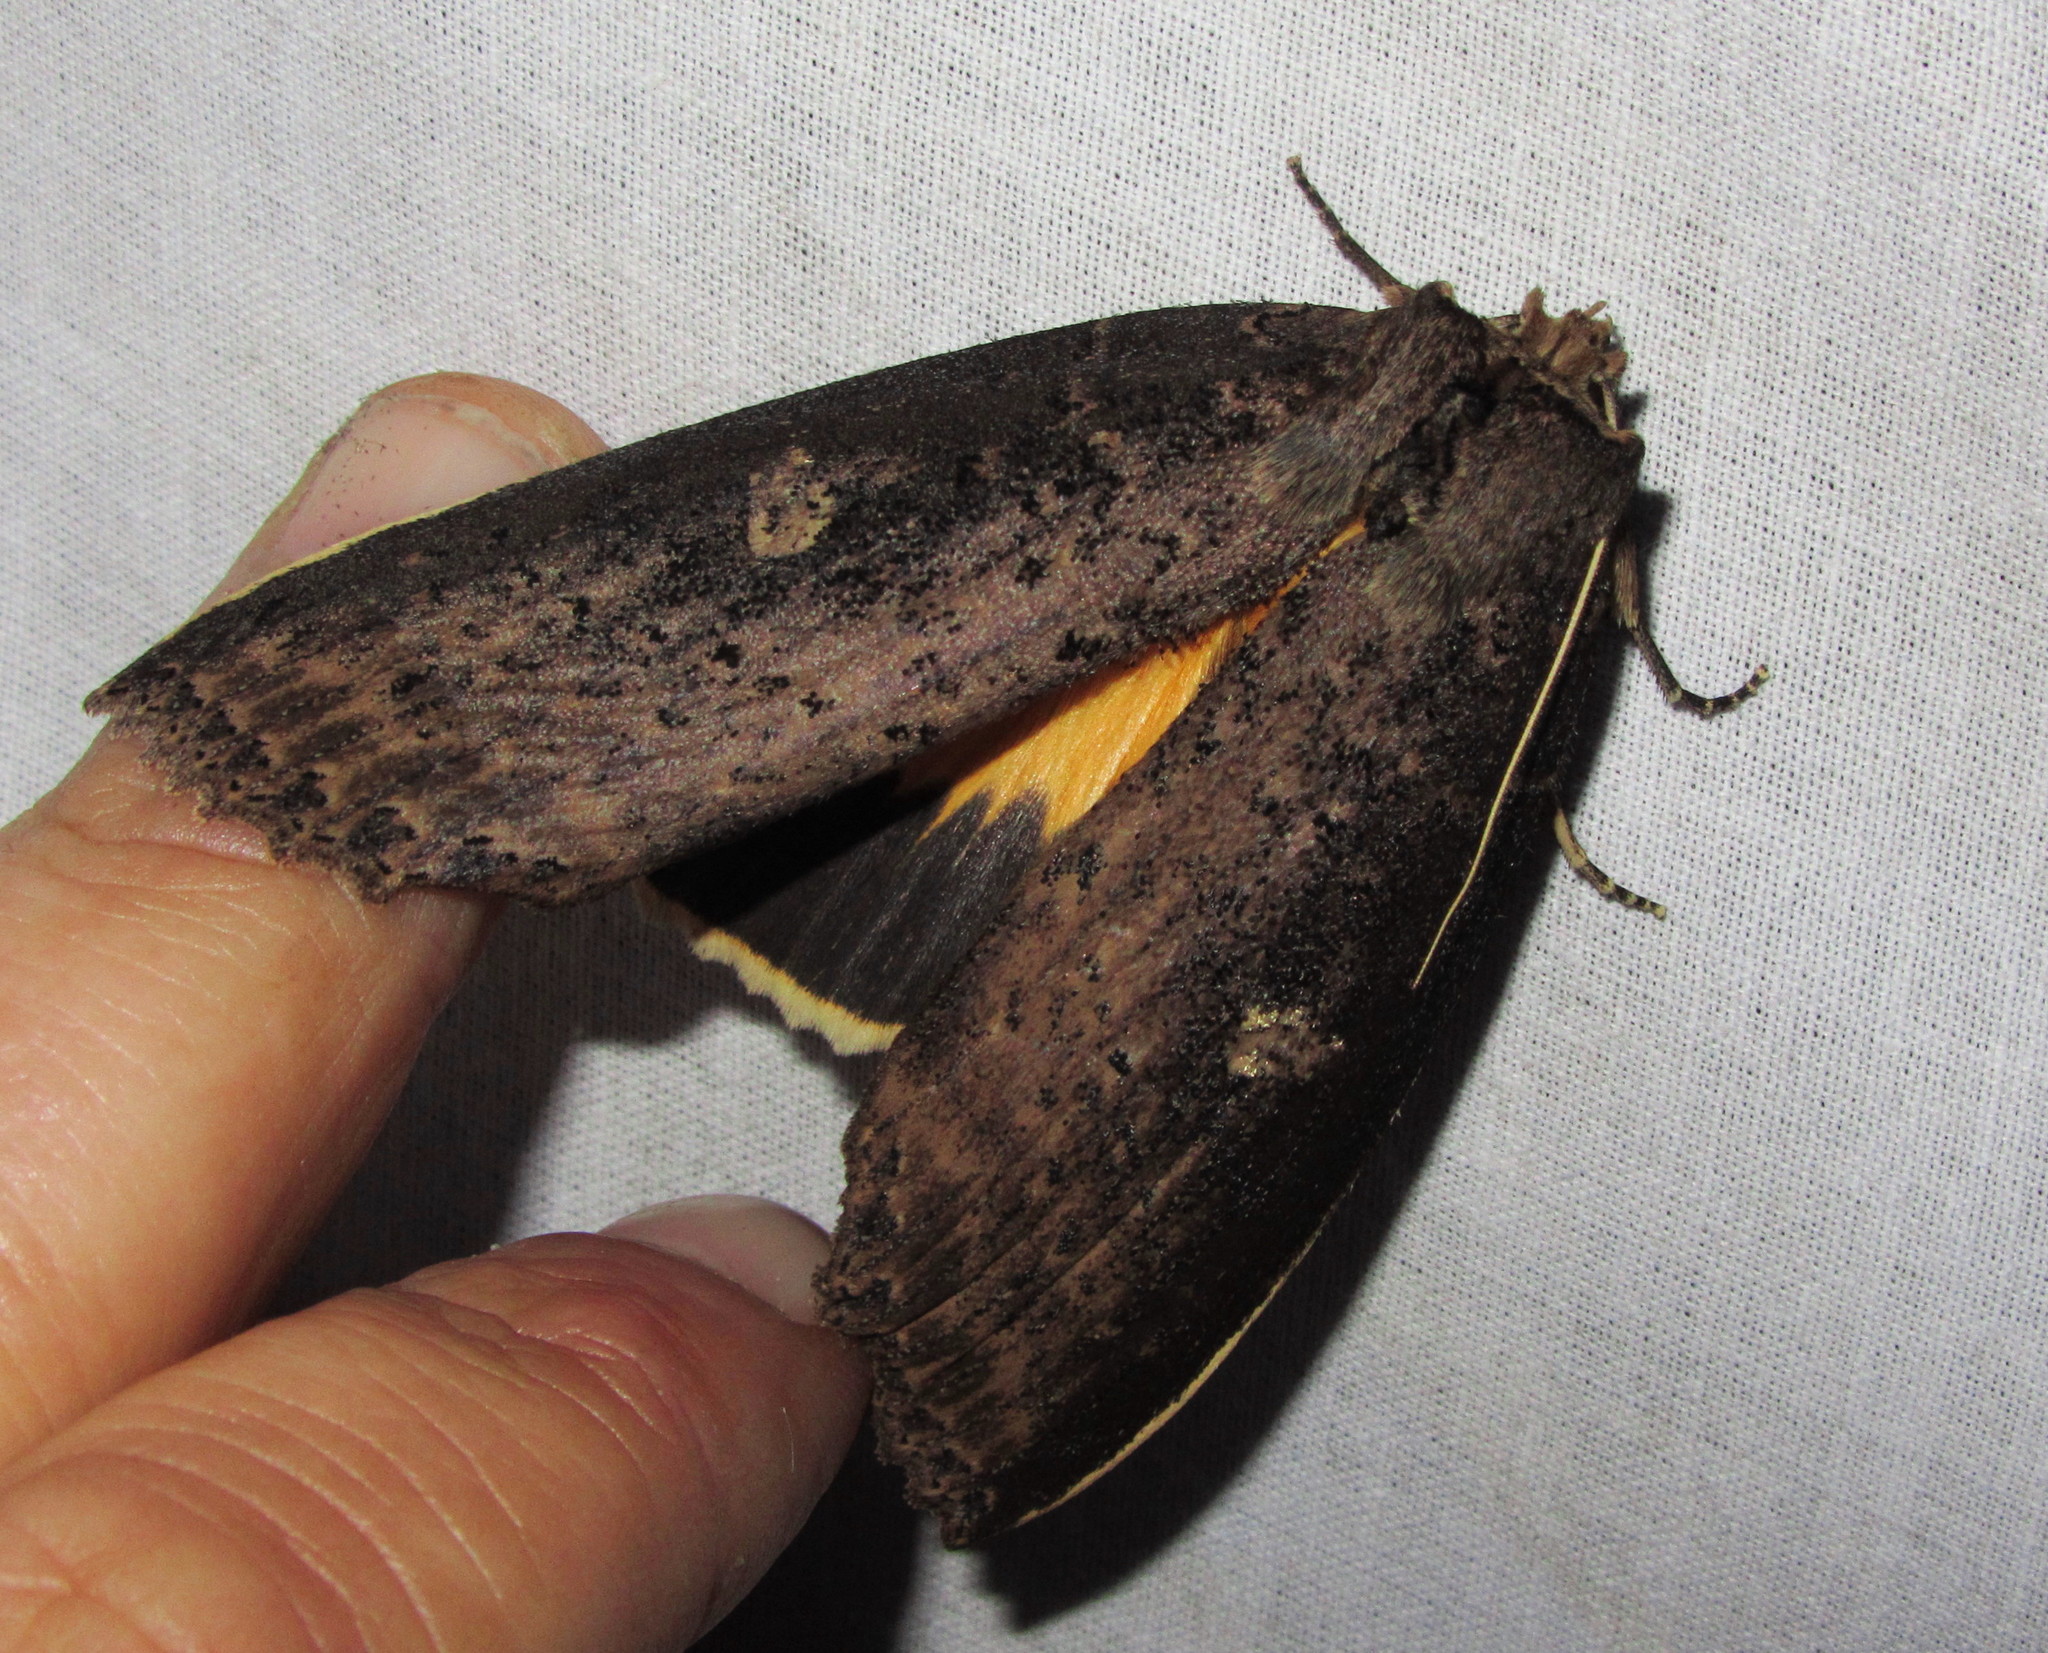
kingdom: Animalia
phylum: Arthropoda
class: Insecta
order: Lepidoptera
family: Notodontidae
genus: Baradesa
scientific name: Baradesa lithosioides
